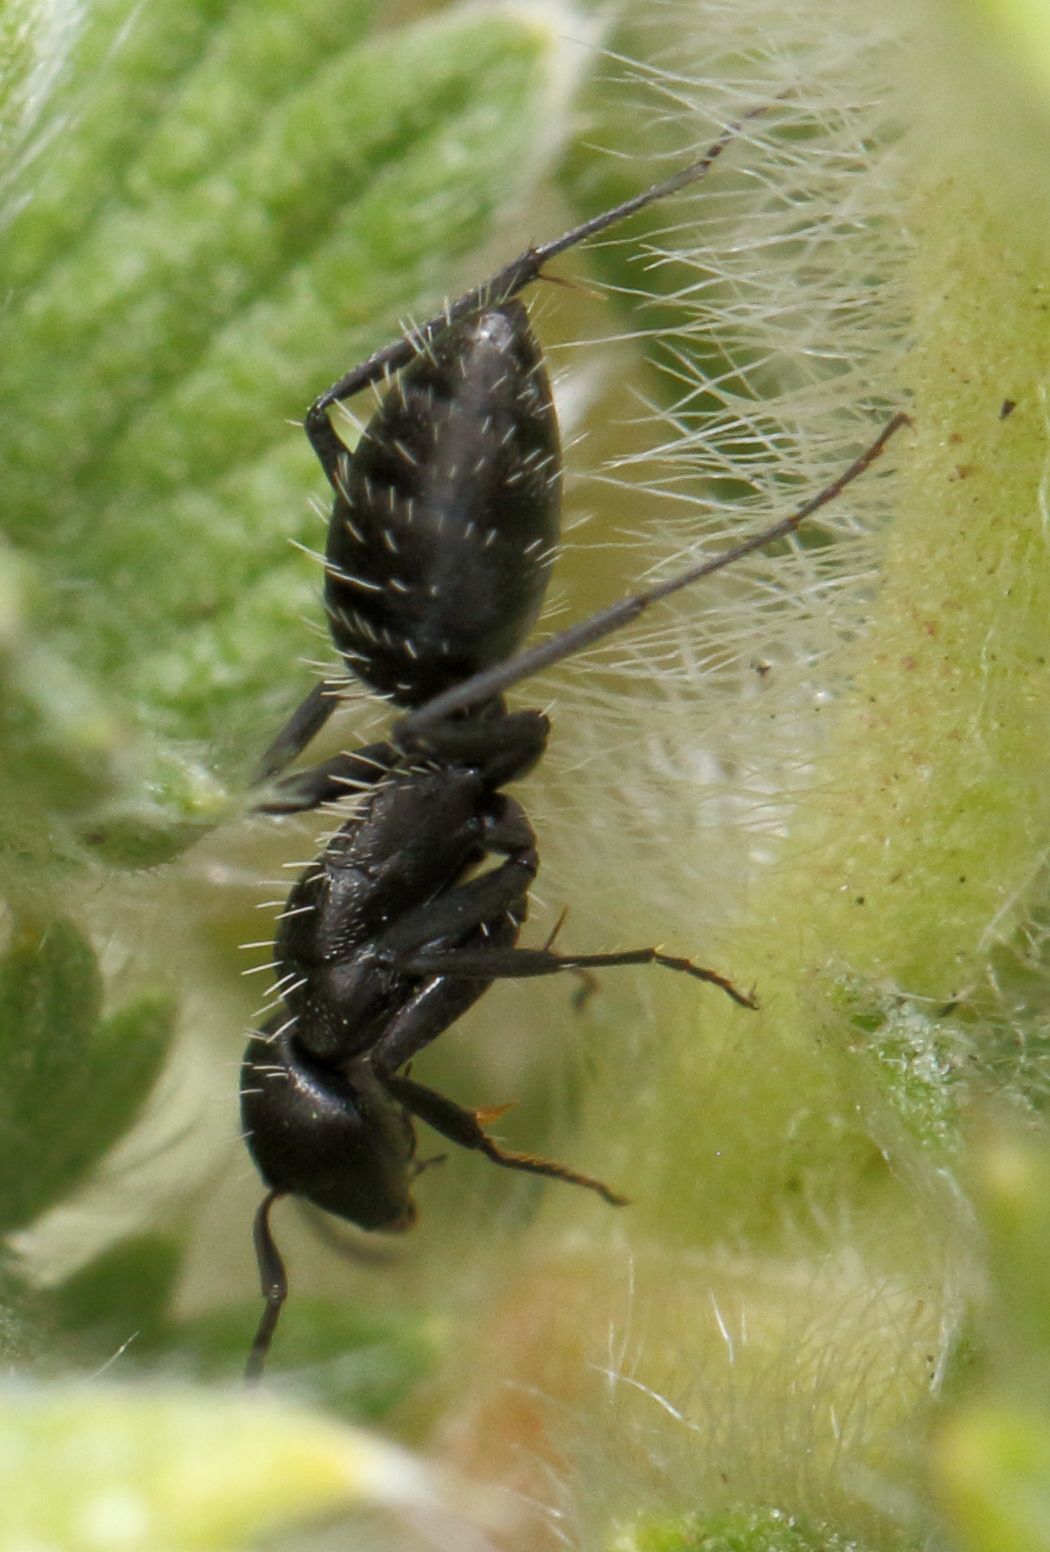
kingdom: Animalia
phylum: Arthropoda
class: Insecta
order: Hymenoptera
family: Formicidae
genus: Camponotus
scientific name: Camponotus niveosetosus
